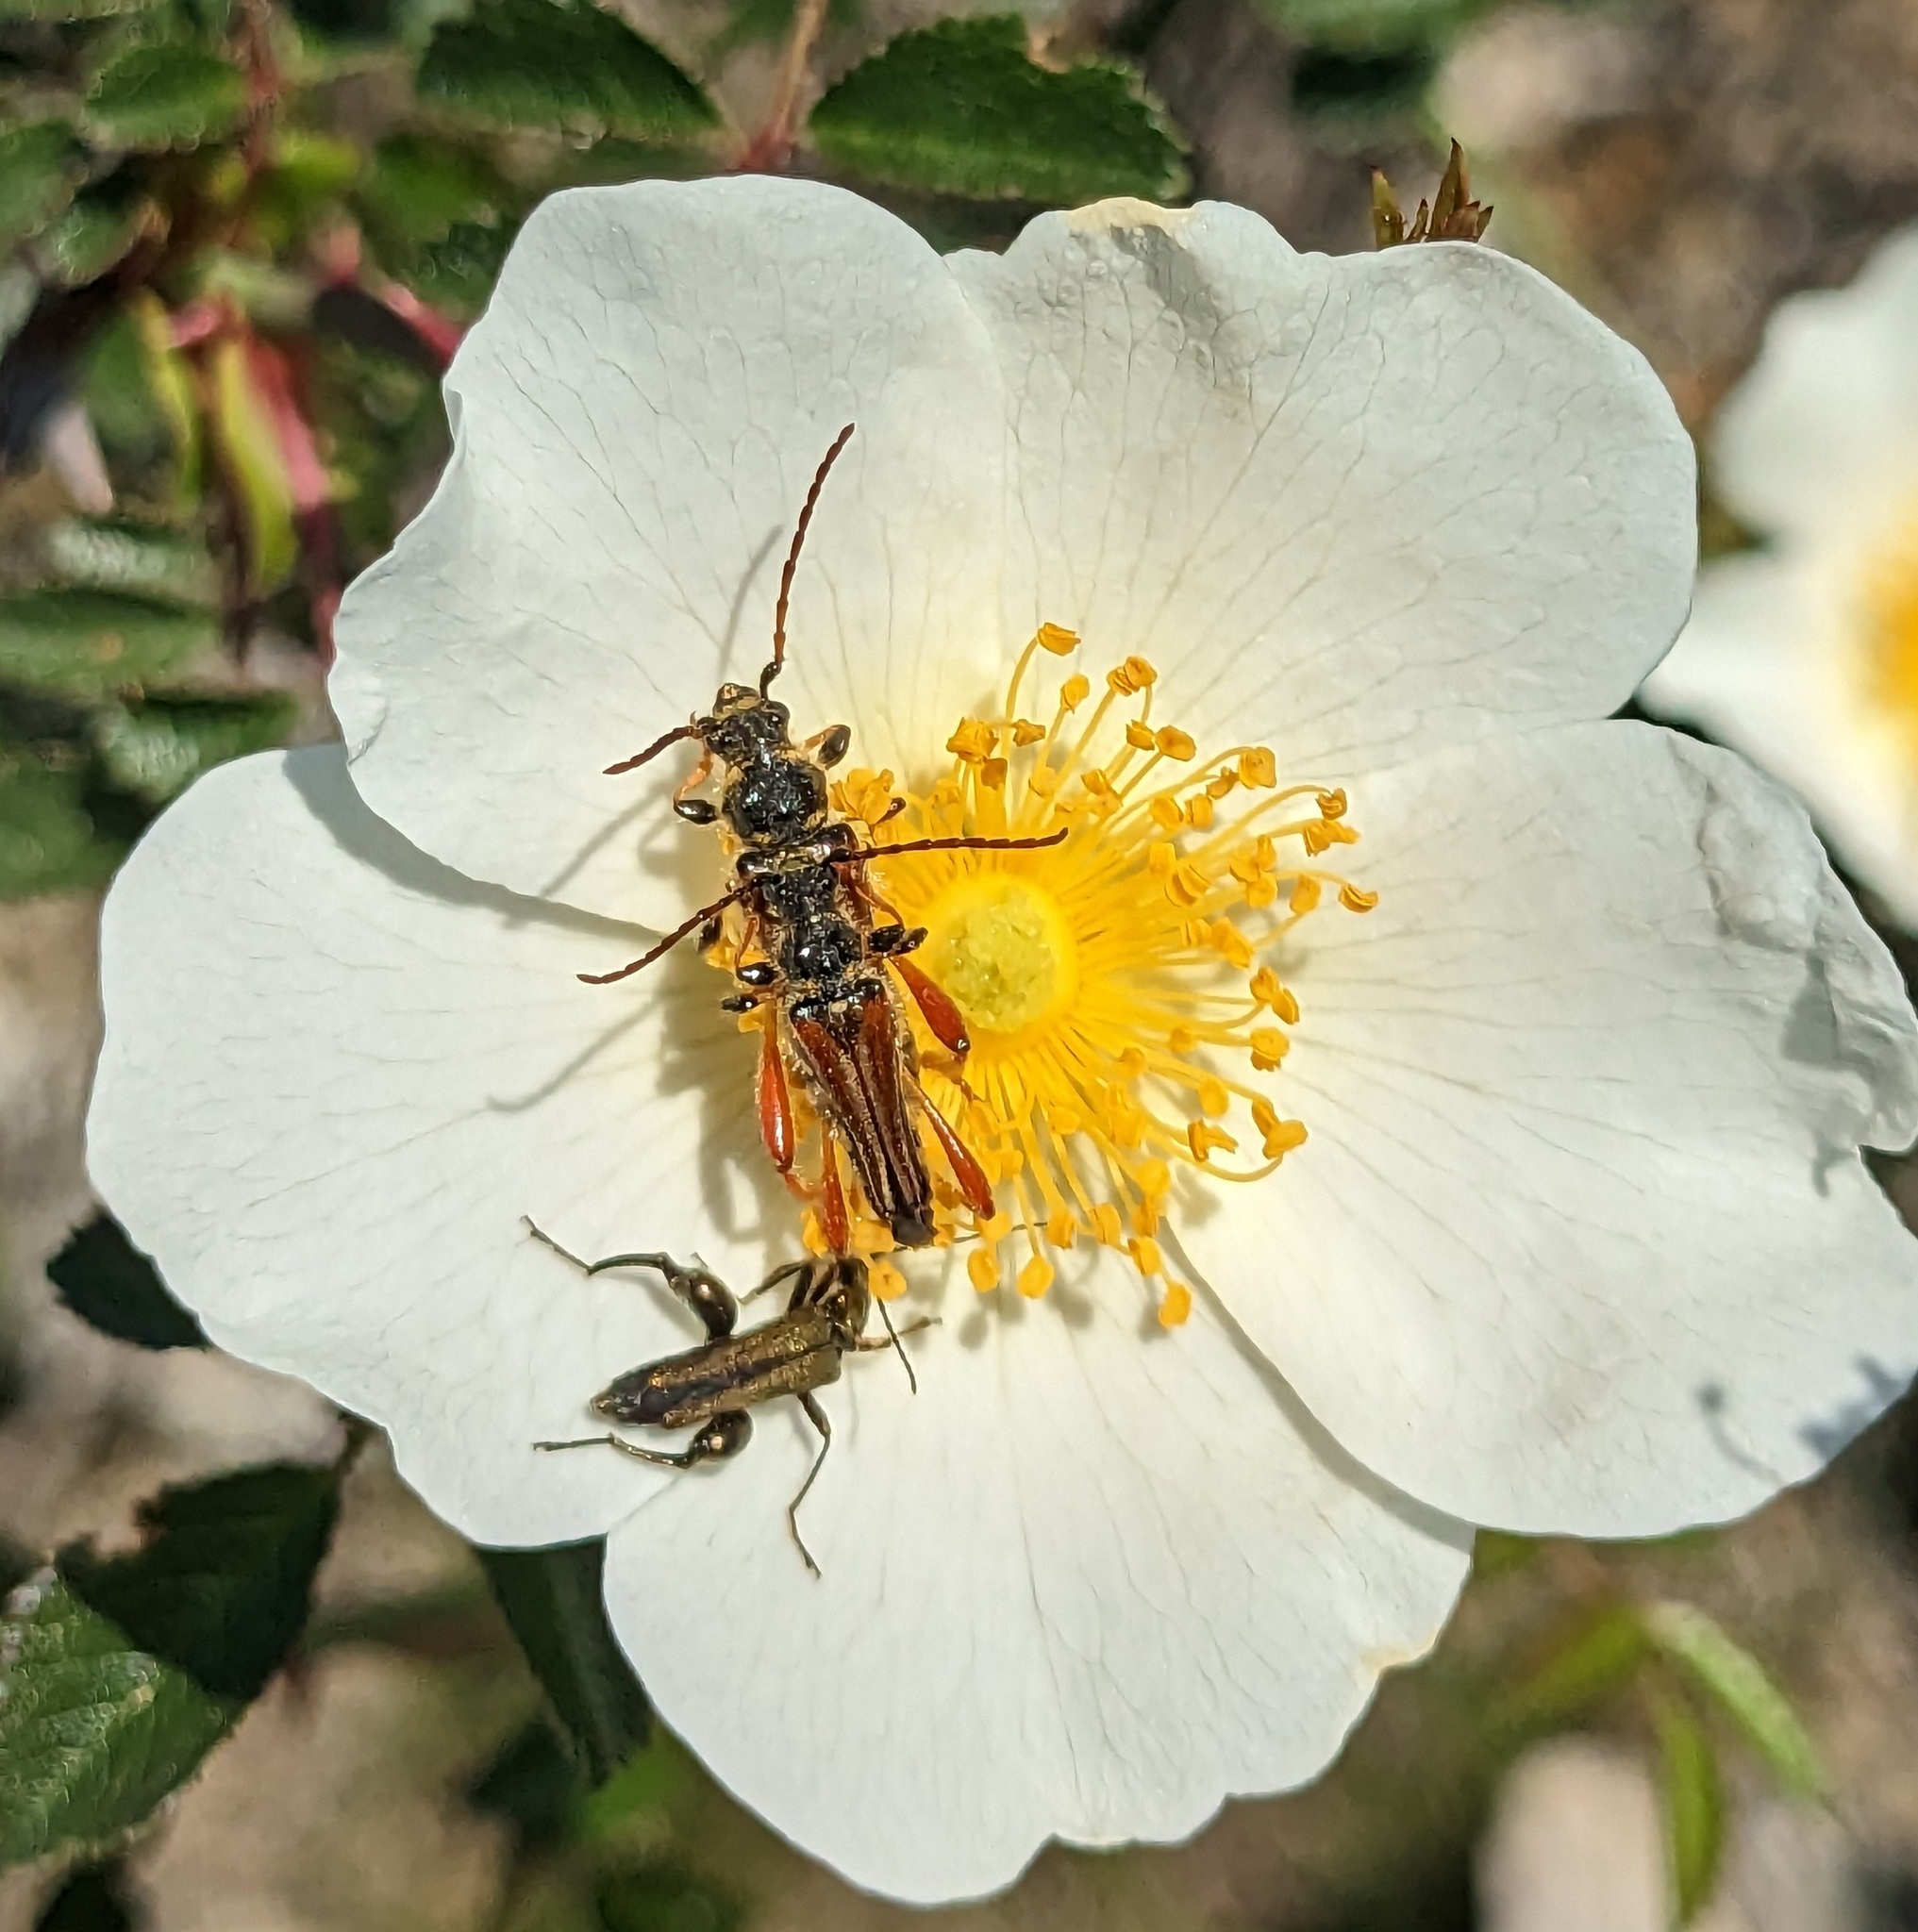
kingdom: Animalia
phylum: Arthropoda
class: Insecta
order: Coleoptera
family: Cerambycidae
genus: Stenopterus
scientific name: Stenopterus rufus
